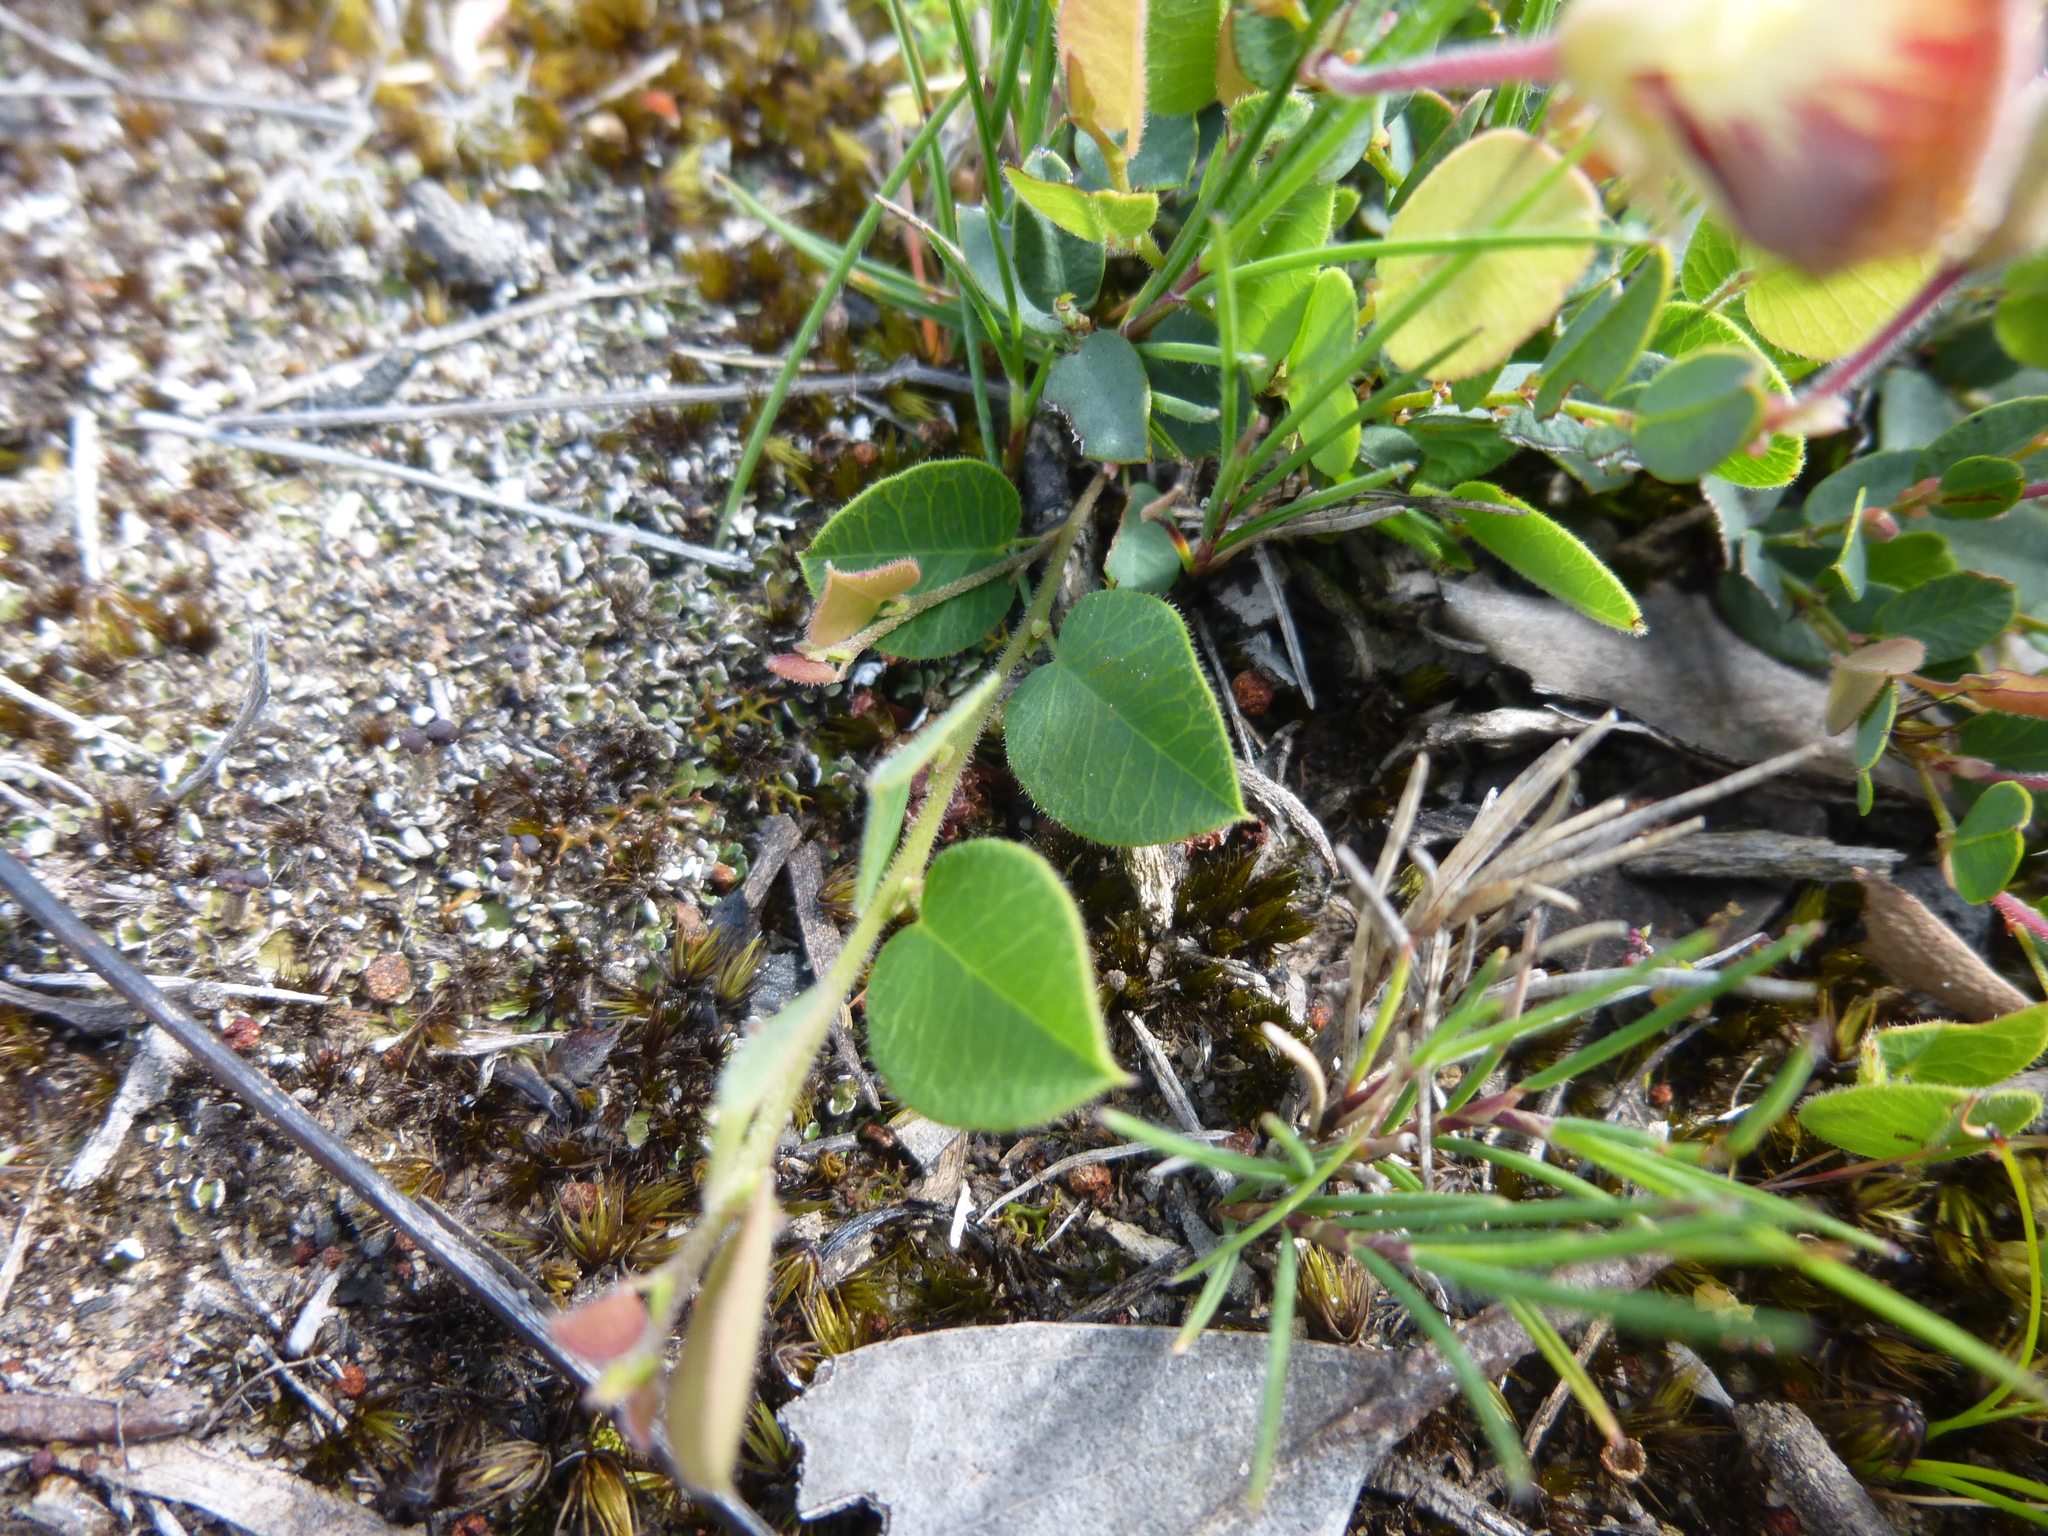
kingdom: Plantae
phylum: Tracheophyta
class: Magnoliopsida
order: Fabales
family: Fabaceae
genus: Bossiaea
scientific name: Bossiaea prostrata
